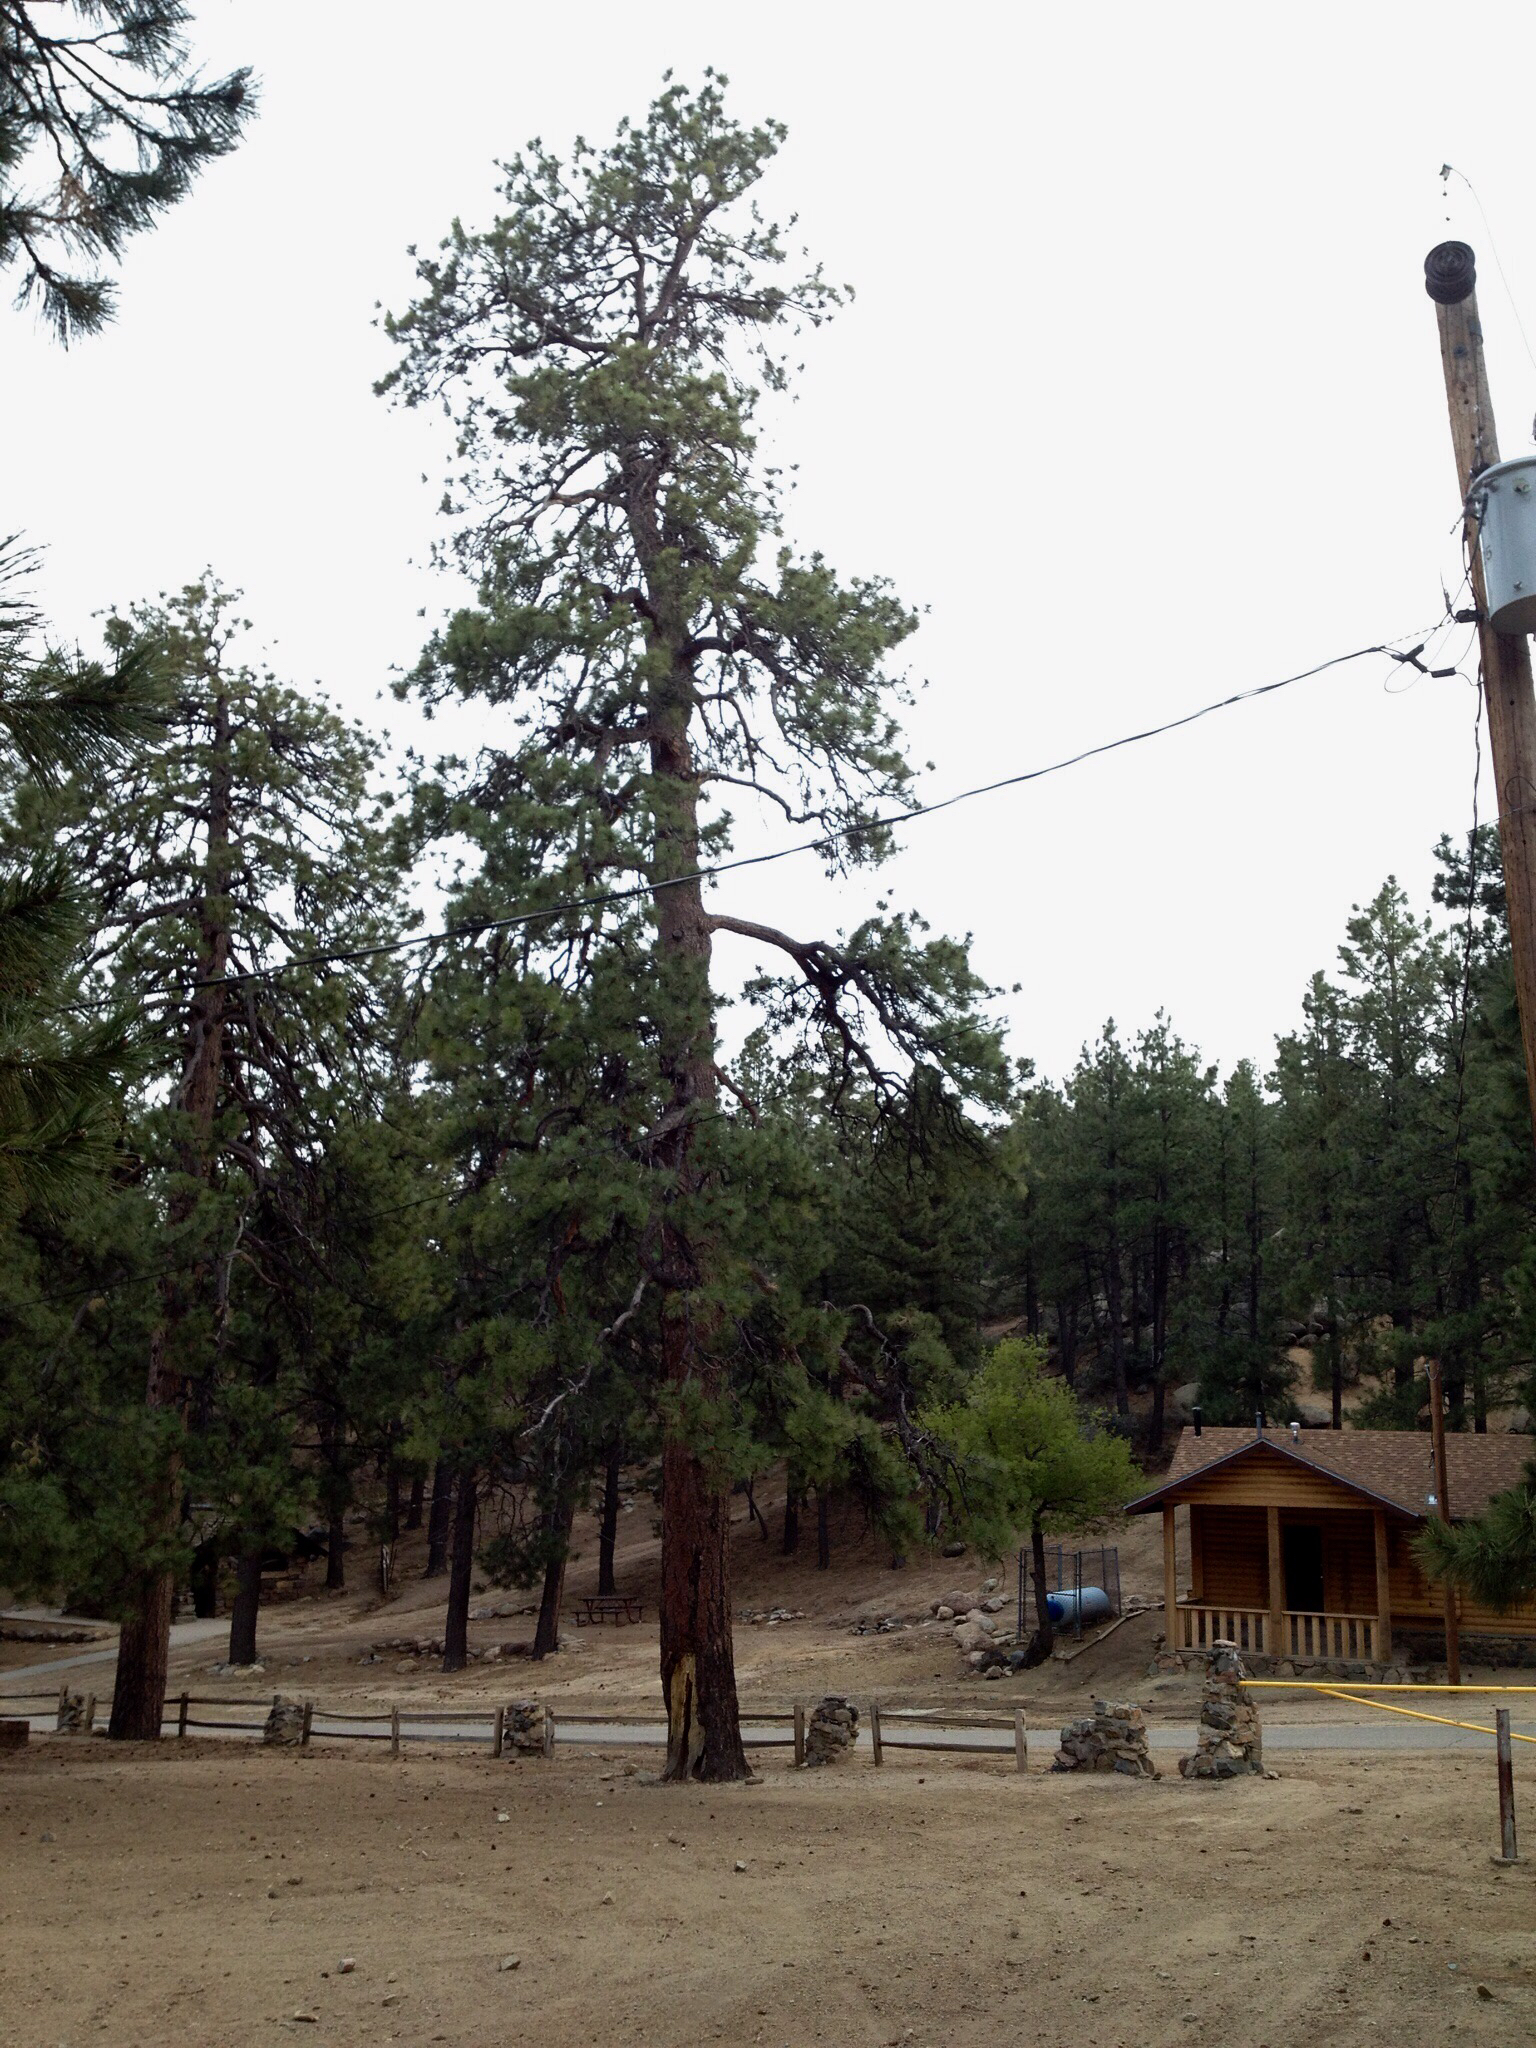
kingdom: Plantae
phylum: Tracheophyta
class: Pinopsida
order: Pinales
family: Pinaceae
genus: Pinus
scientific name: Pinus ponderosa
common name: Western yellow-pine
